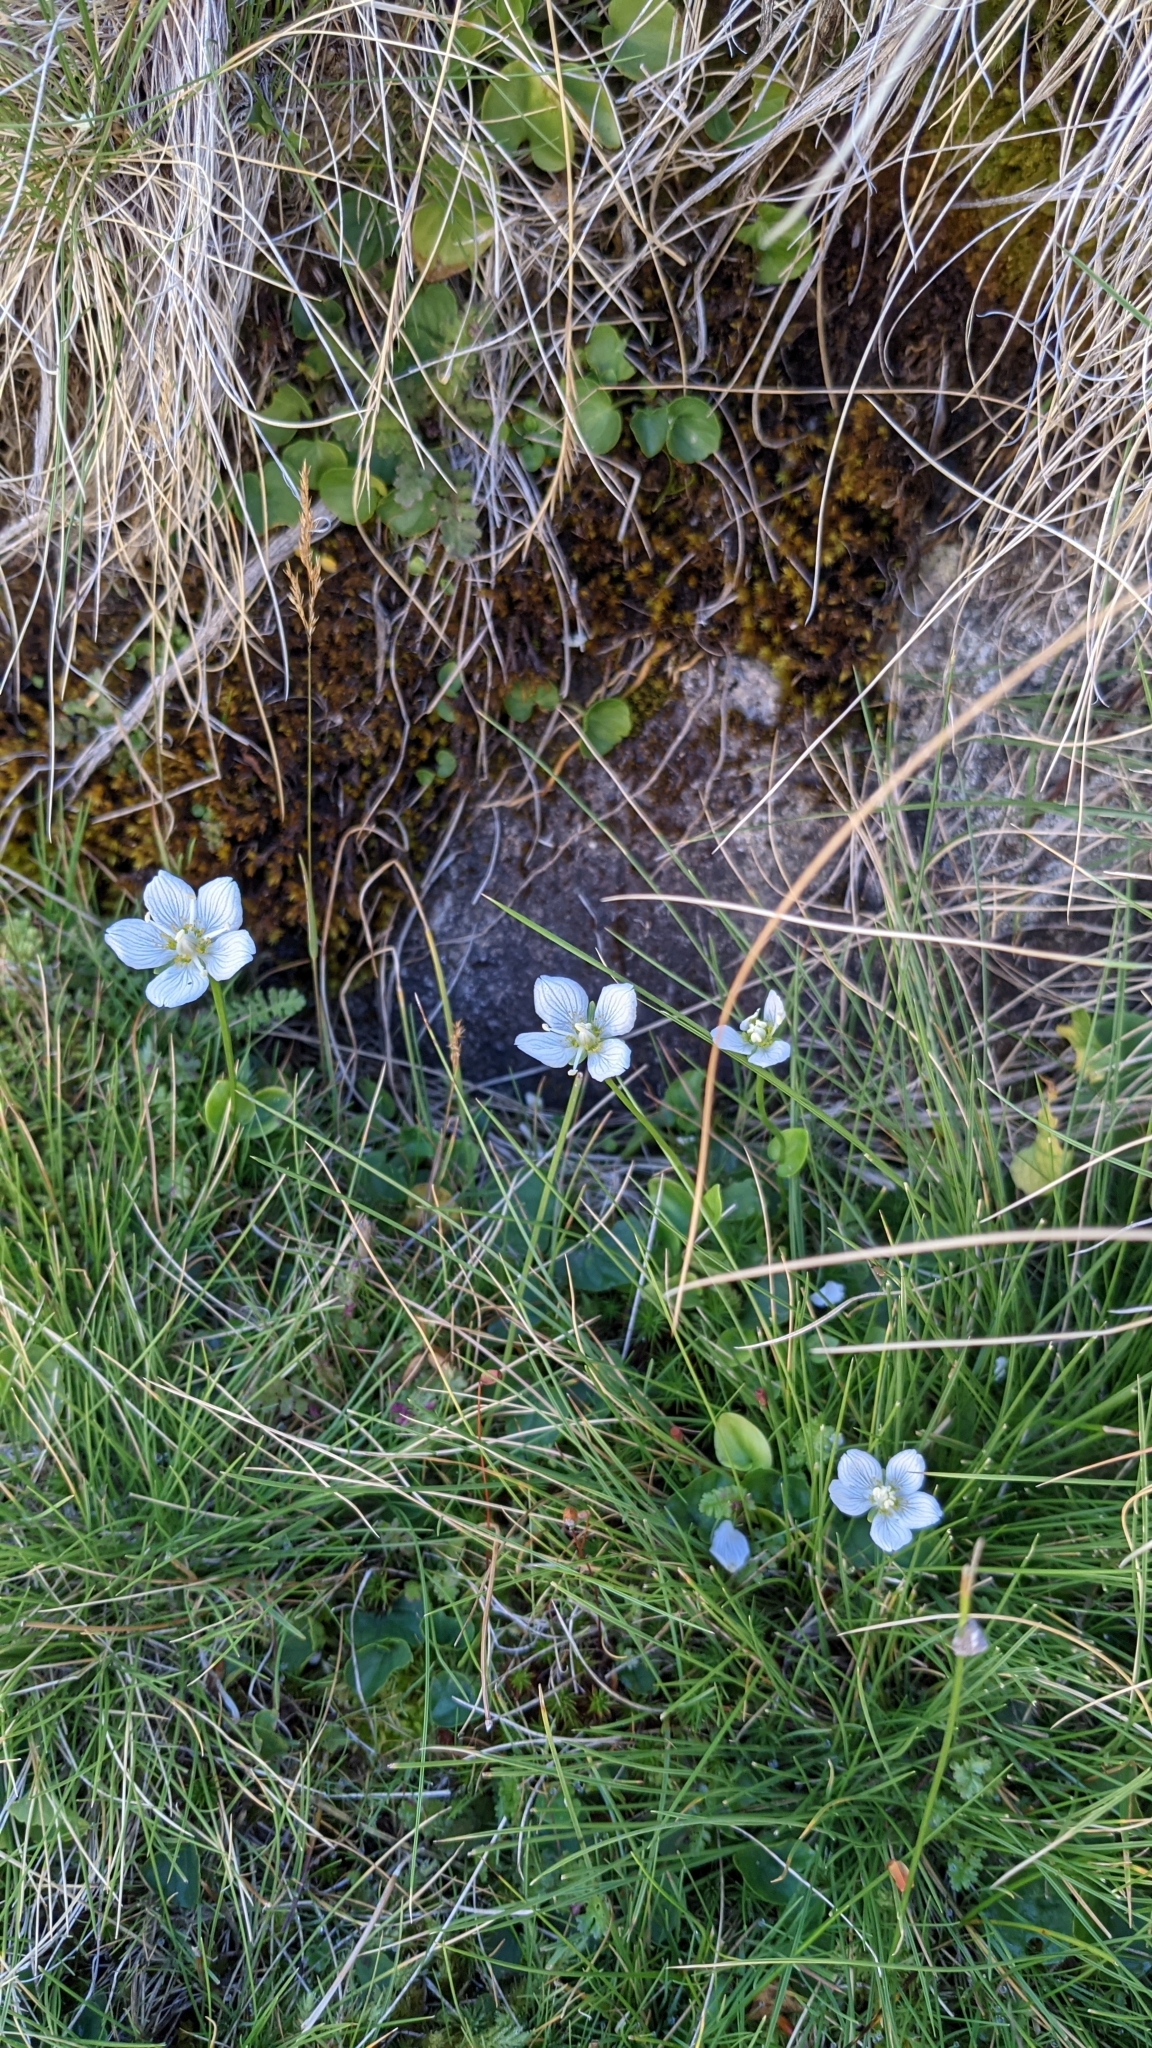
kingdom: Plantae
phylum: Tracheophyta
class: Magnoliopsida
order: Celastrales
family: Parnassiaceae
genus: Parnassia
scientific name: Parnassia palustris
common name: Grass-of-parnassus
